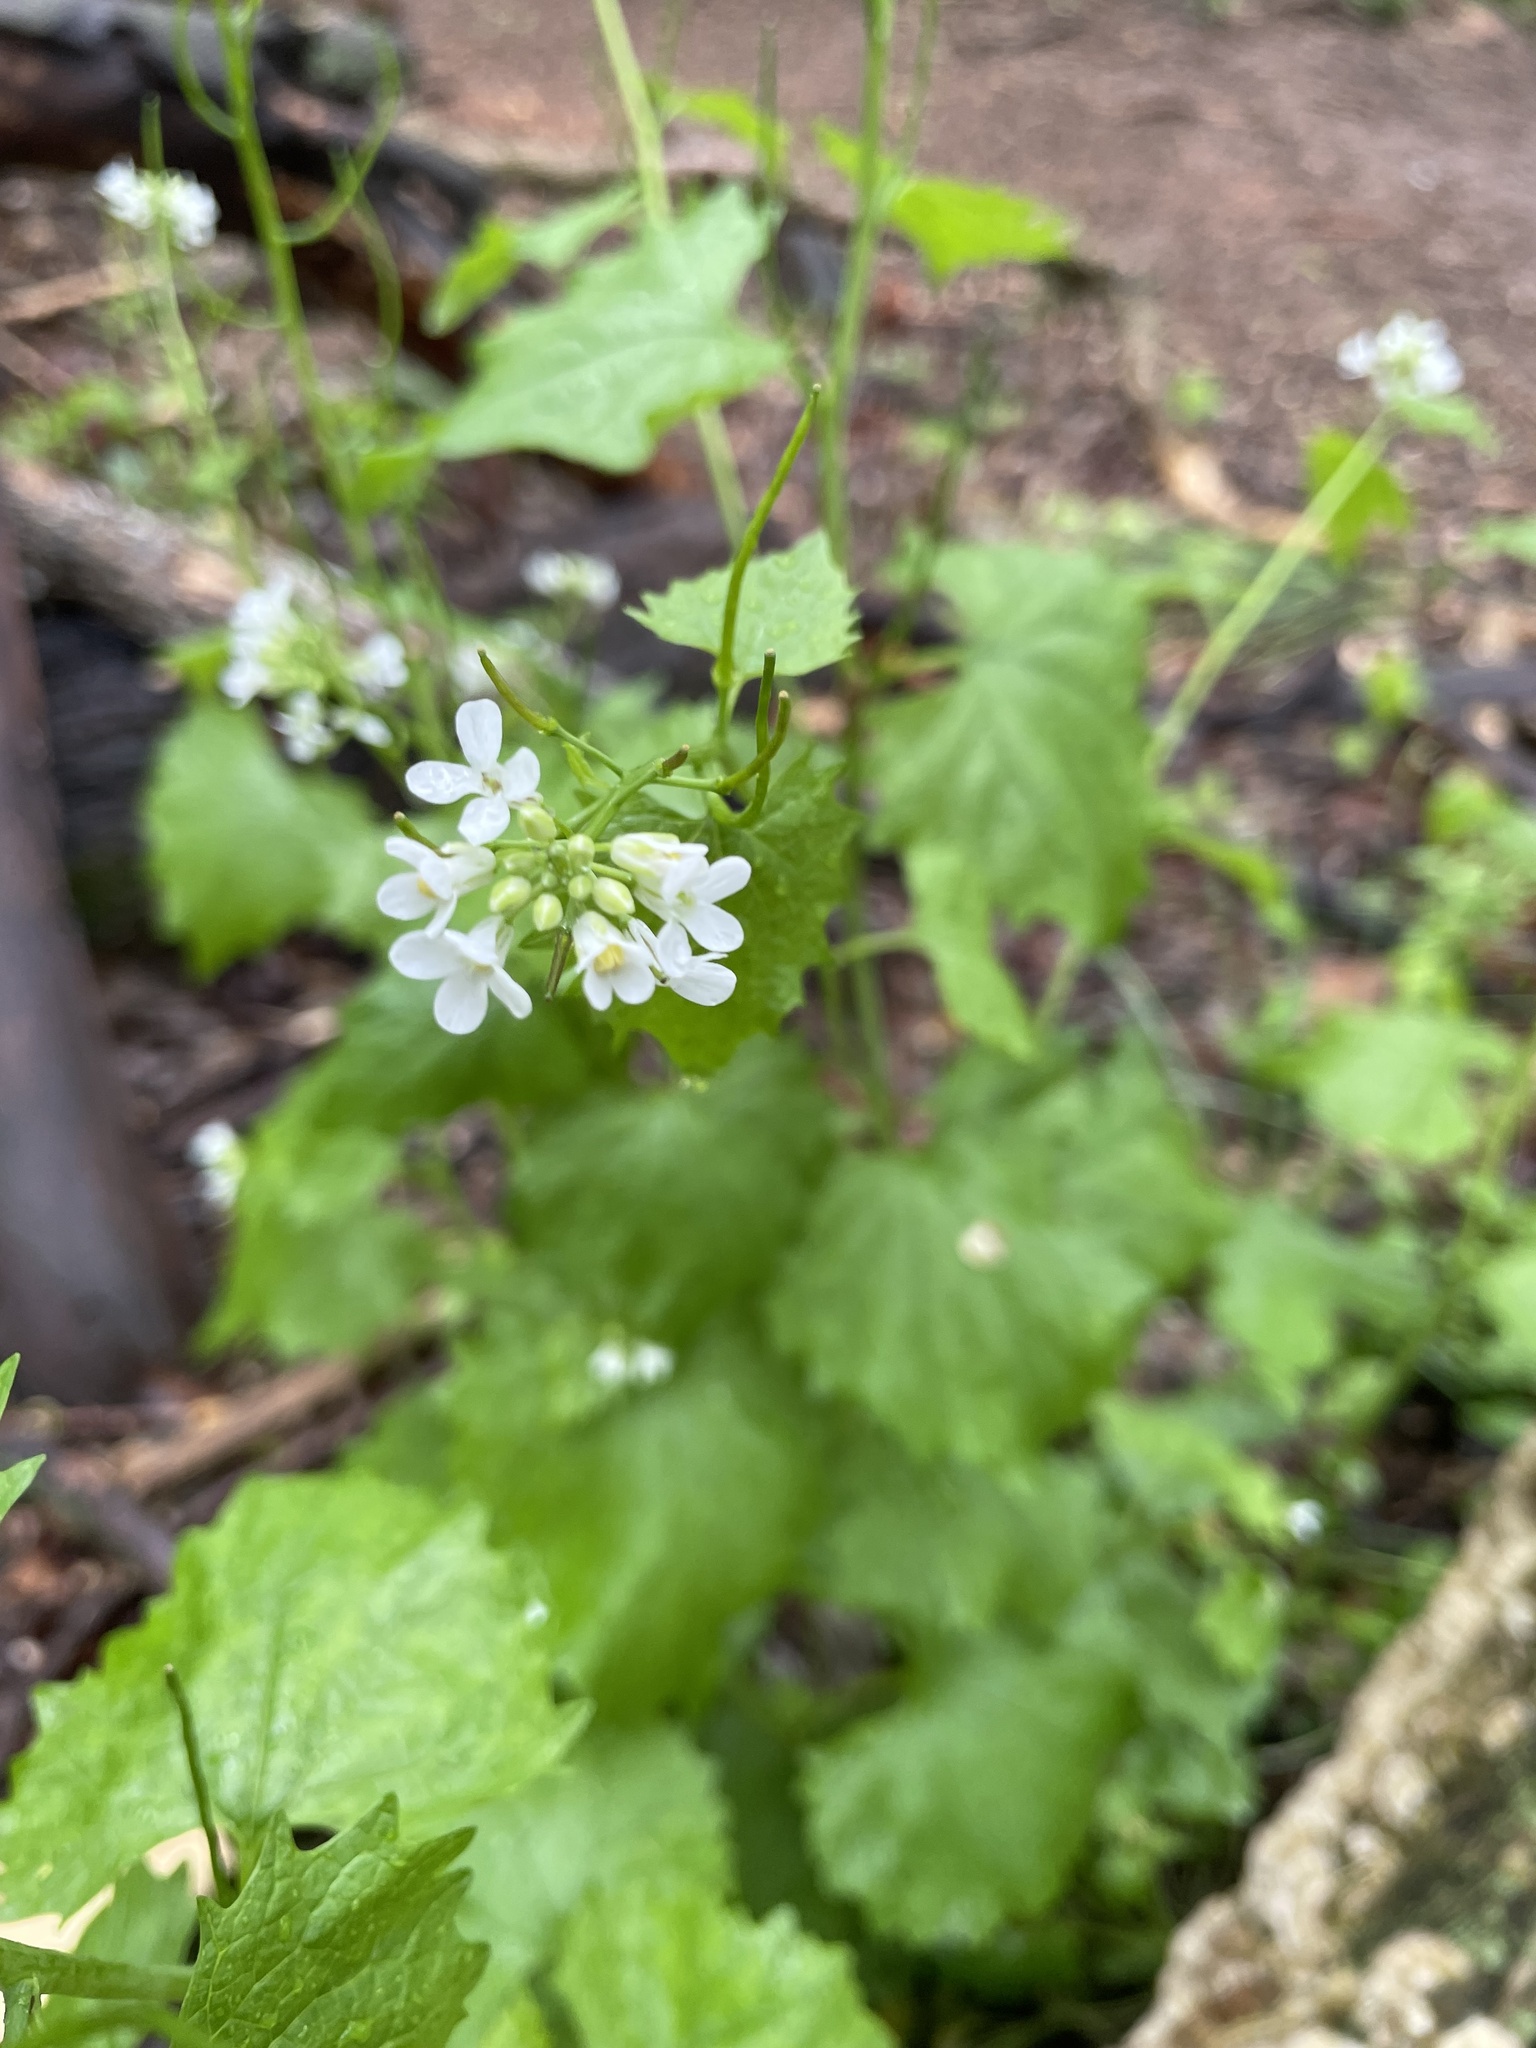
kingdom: Plantae
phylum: Tracheophyta
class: Magnoliopsida
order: Brassicales
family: Brassicaceae
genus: Alliaria
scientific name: Alliaria petiolata
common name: Garlic mustard
